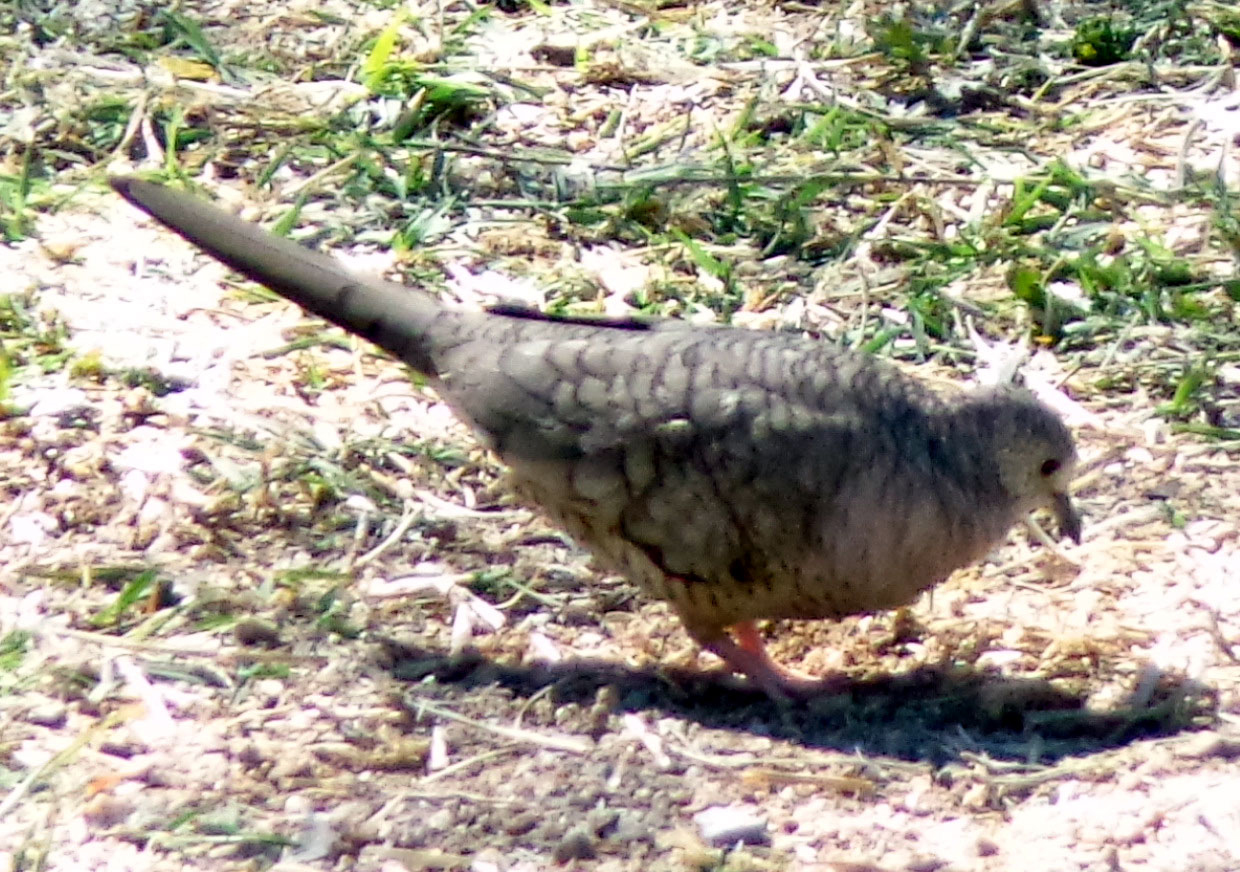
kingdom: Animalia
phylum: Chordata
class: Aves
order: Columbiformes
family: Columbidae
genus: Columbina
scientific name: Columbina inca
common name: Inca dove
